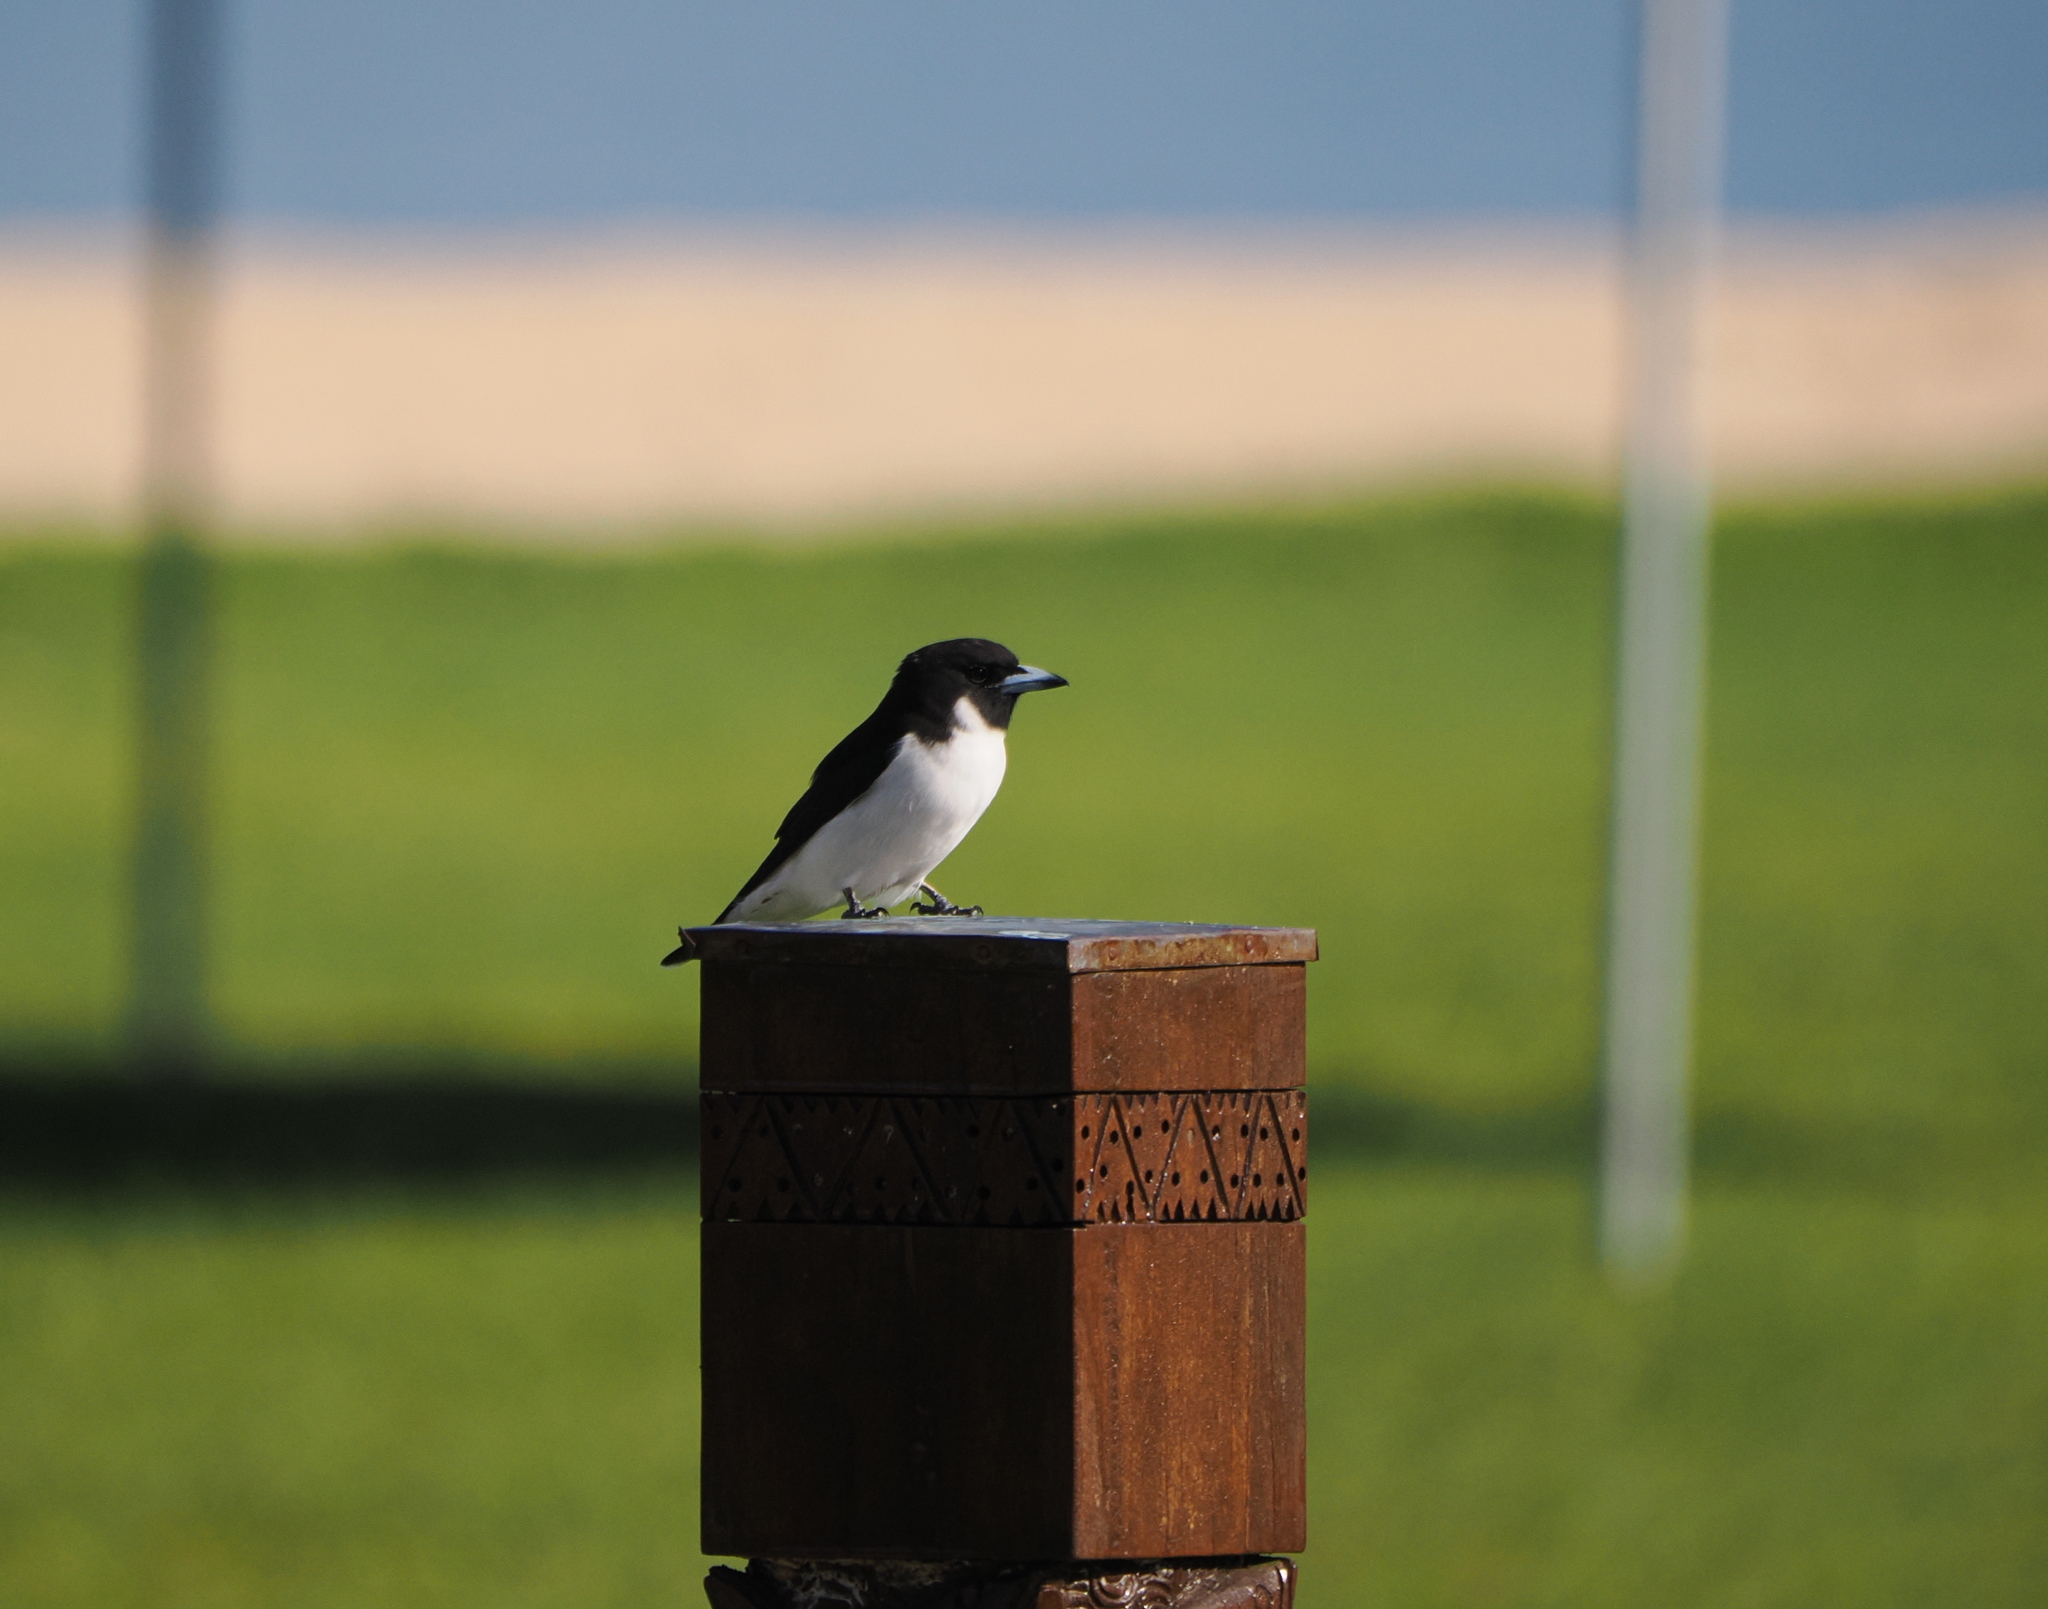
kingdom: Animalia
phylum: Chordata
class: Aves
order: Passeriformes
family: Artamidae
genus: Artamus
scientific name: Artamus mentalis
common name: Fiji woodswallow
